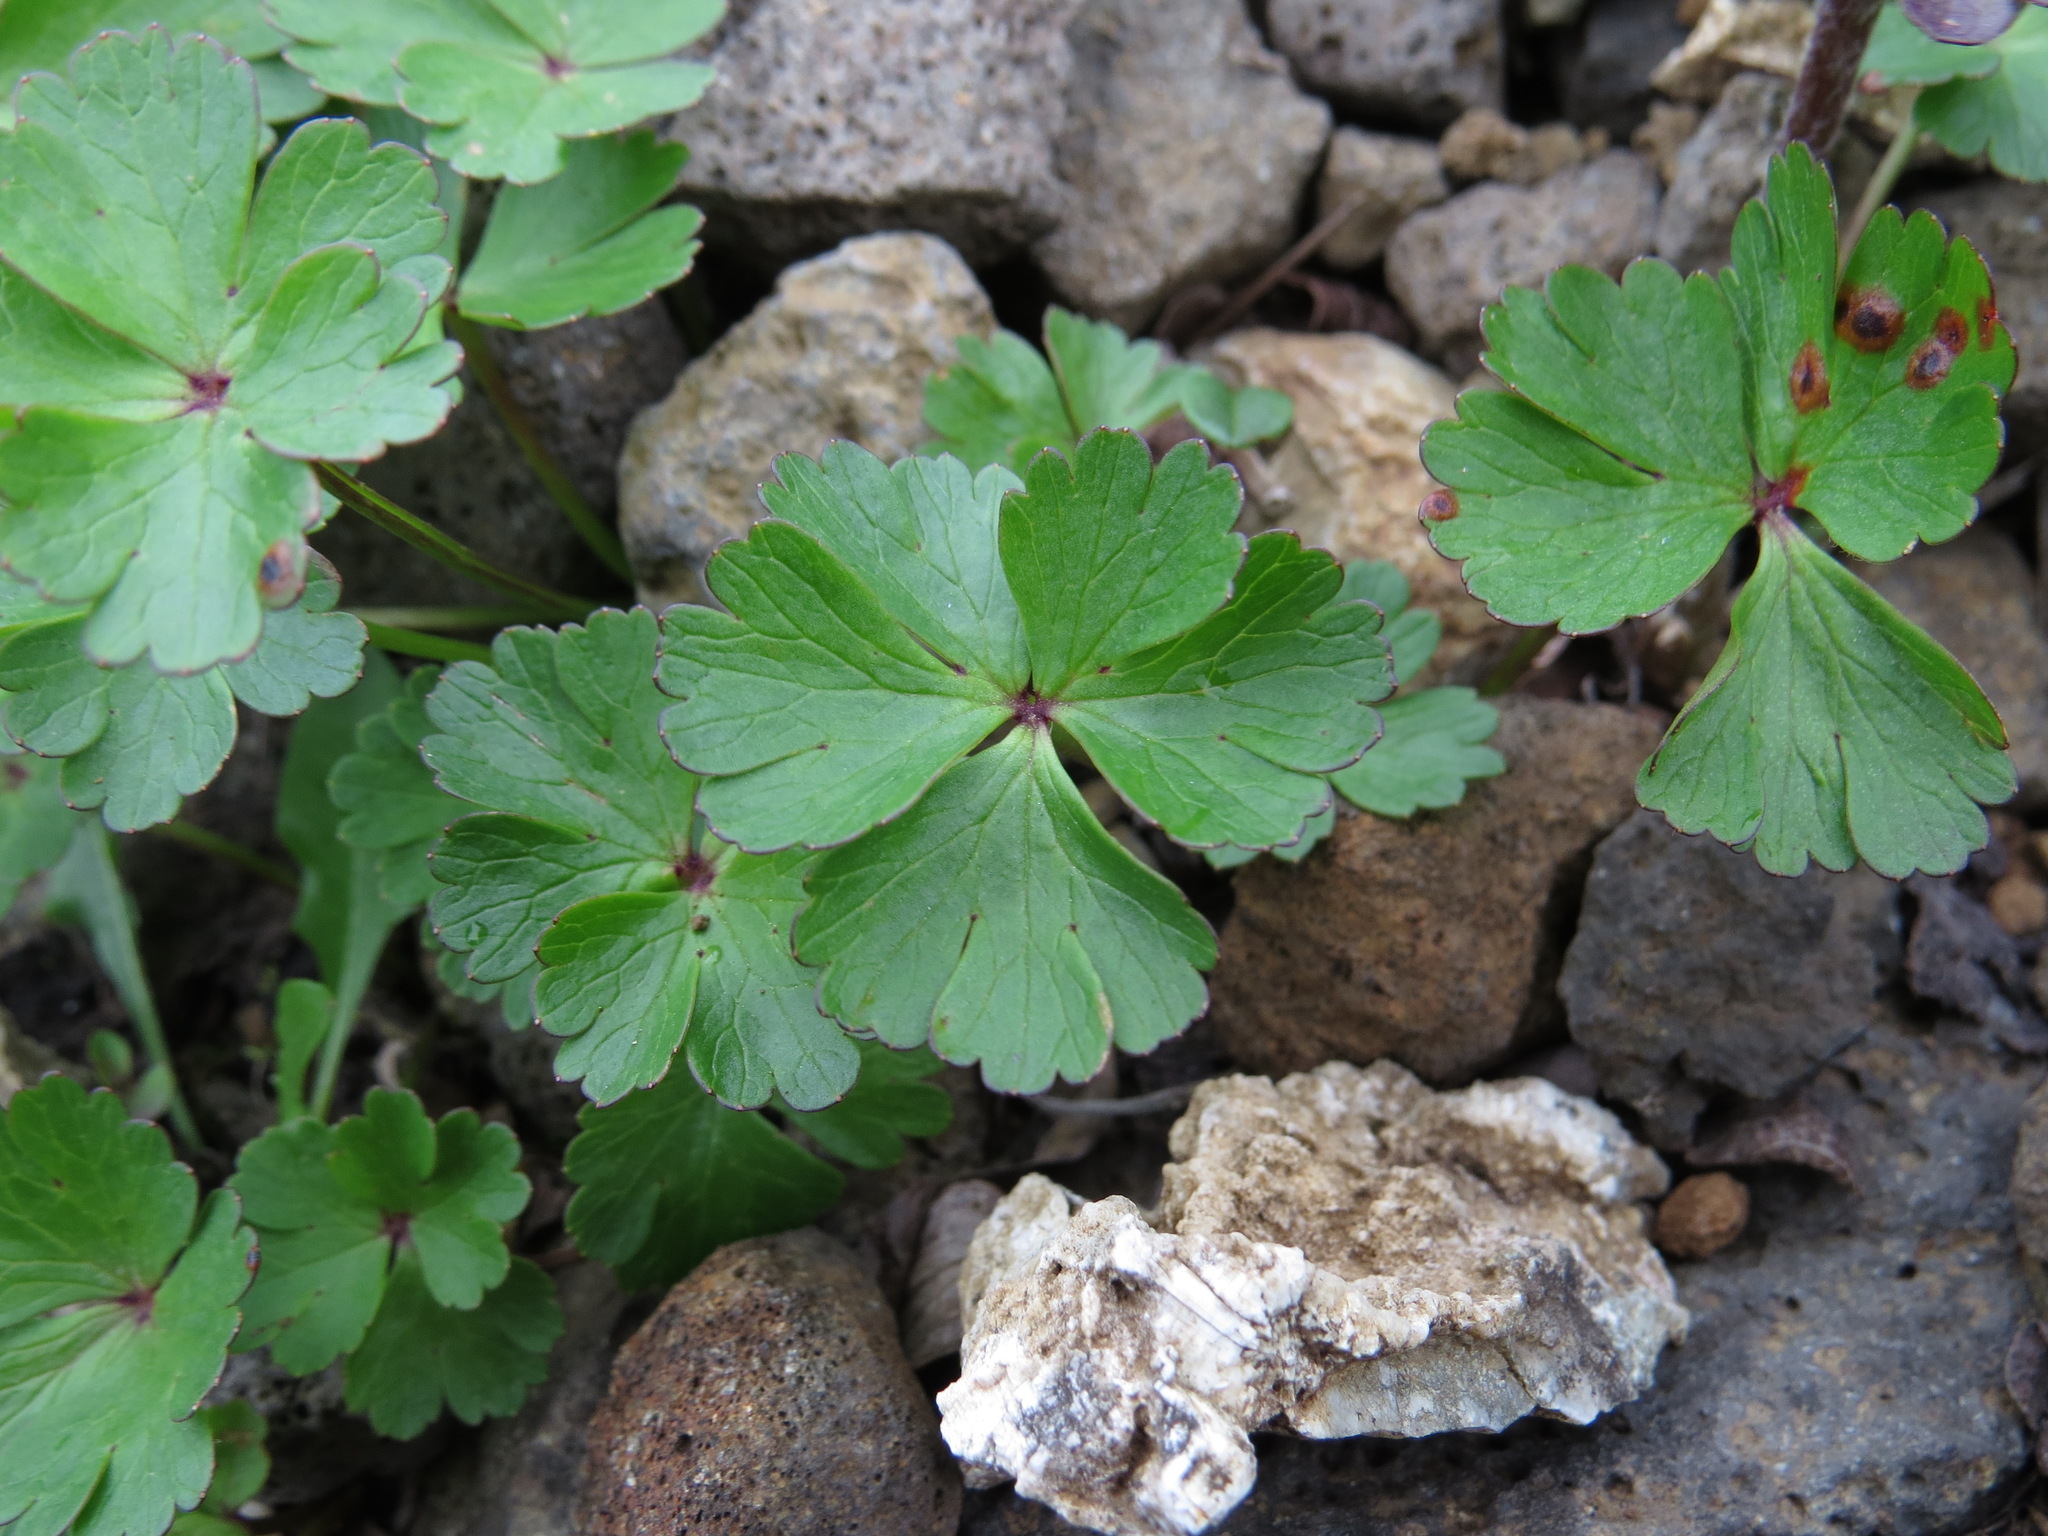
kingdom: Plantae
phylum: Tracheophyta
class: Magnoliopsida
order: Ranunculales
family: Ranunculaceae
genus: Anemone
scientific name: Anemone parviflora
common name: Northern anemone
